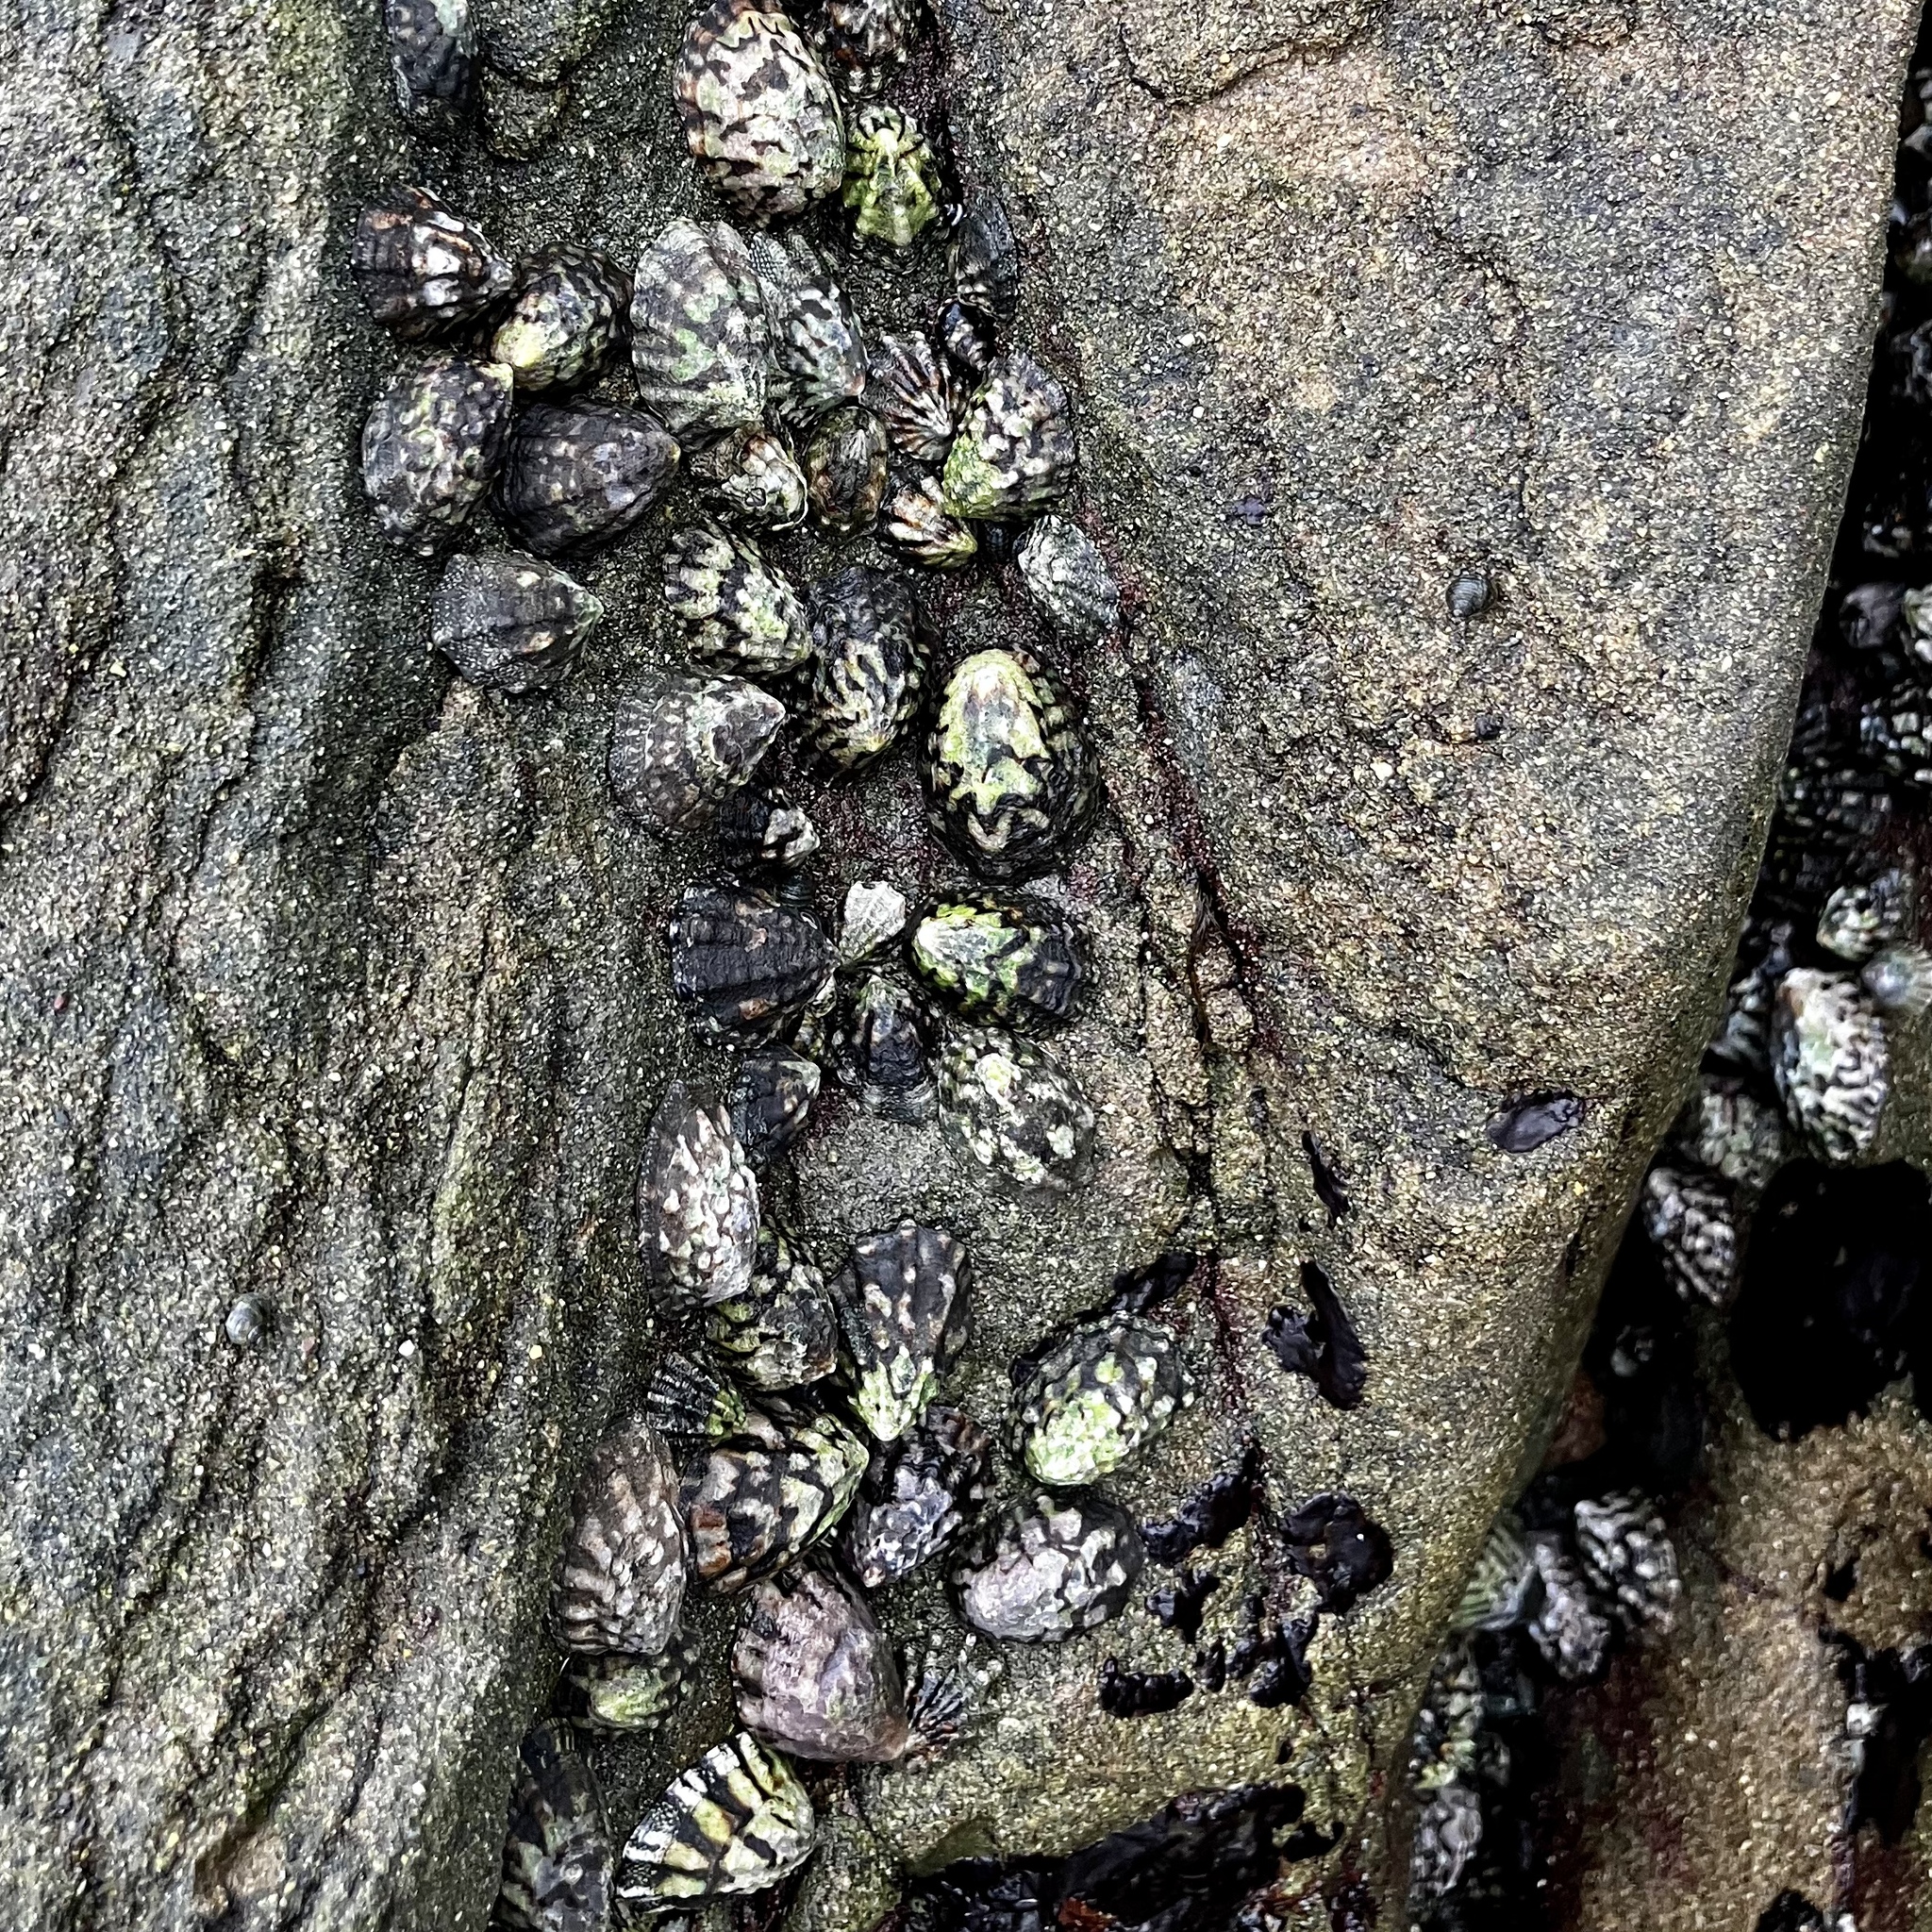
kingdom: Animalia
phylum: Mollusca
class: Gastropoda
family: Lottiidae
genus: Lottia
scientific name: Lottia digitalis
